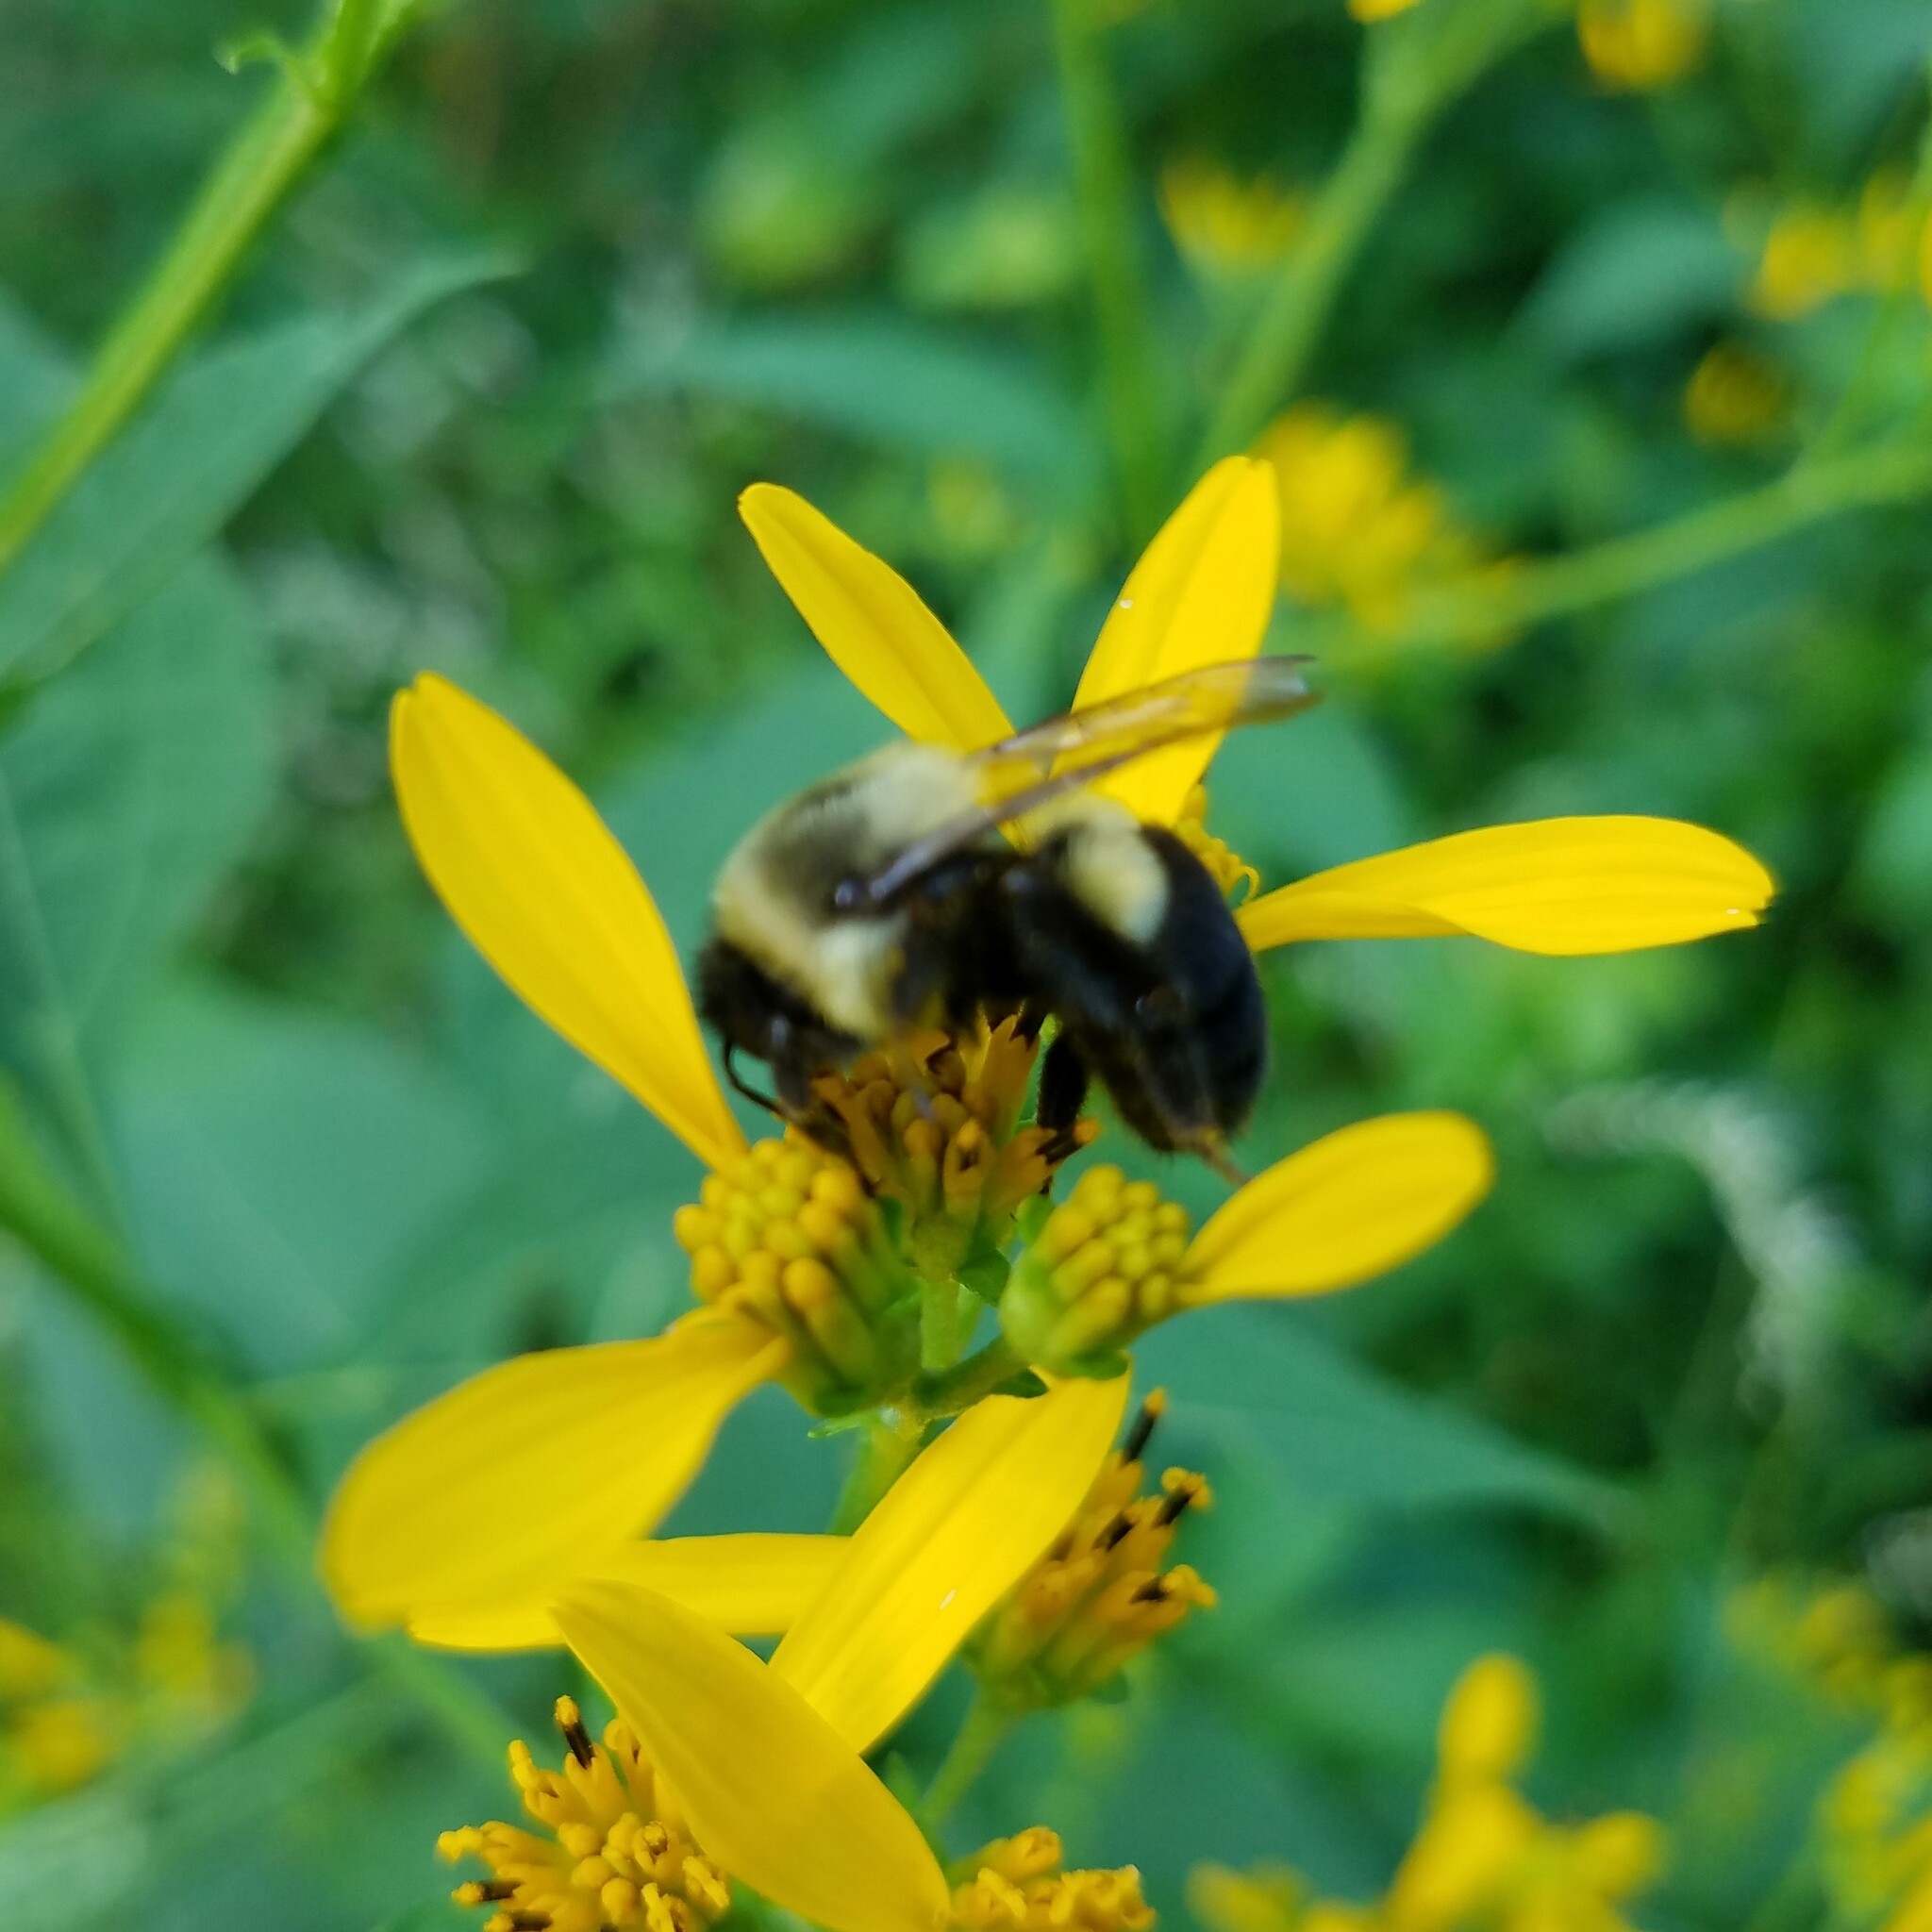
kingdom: Animalia
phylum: Arthropoda
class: Insecta
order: Hymenoptera
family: Apidae
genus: Bombus
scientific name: Bombus impatiens
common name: Common eastern bumble bee
